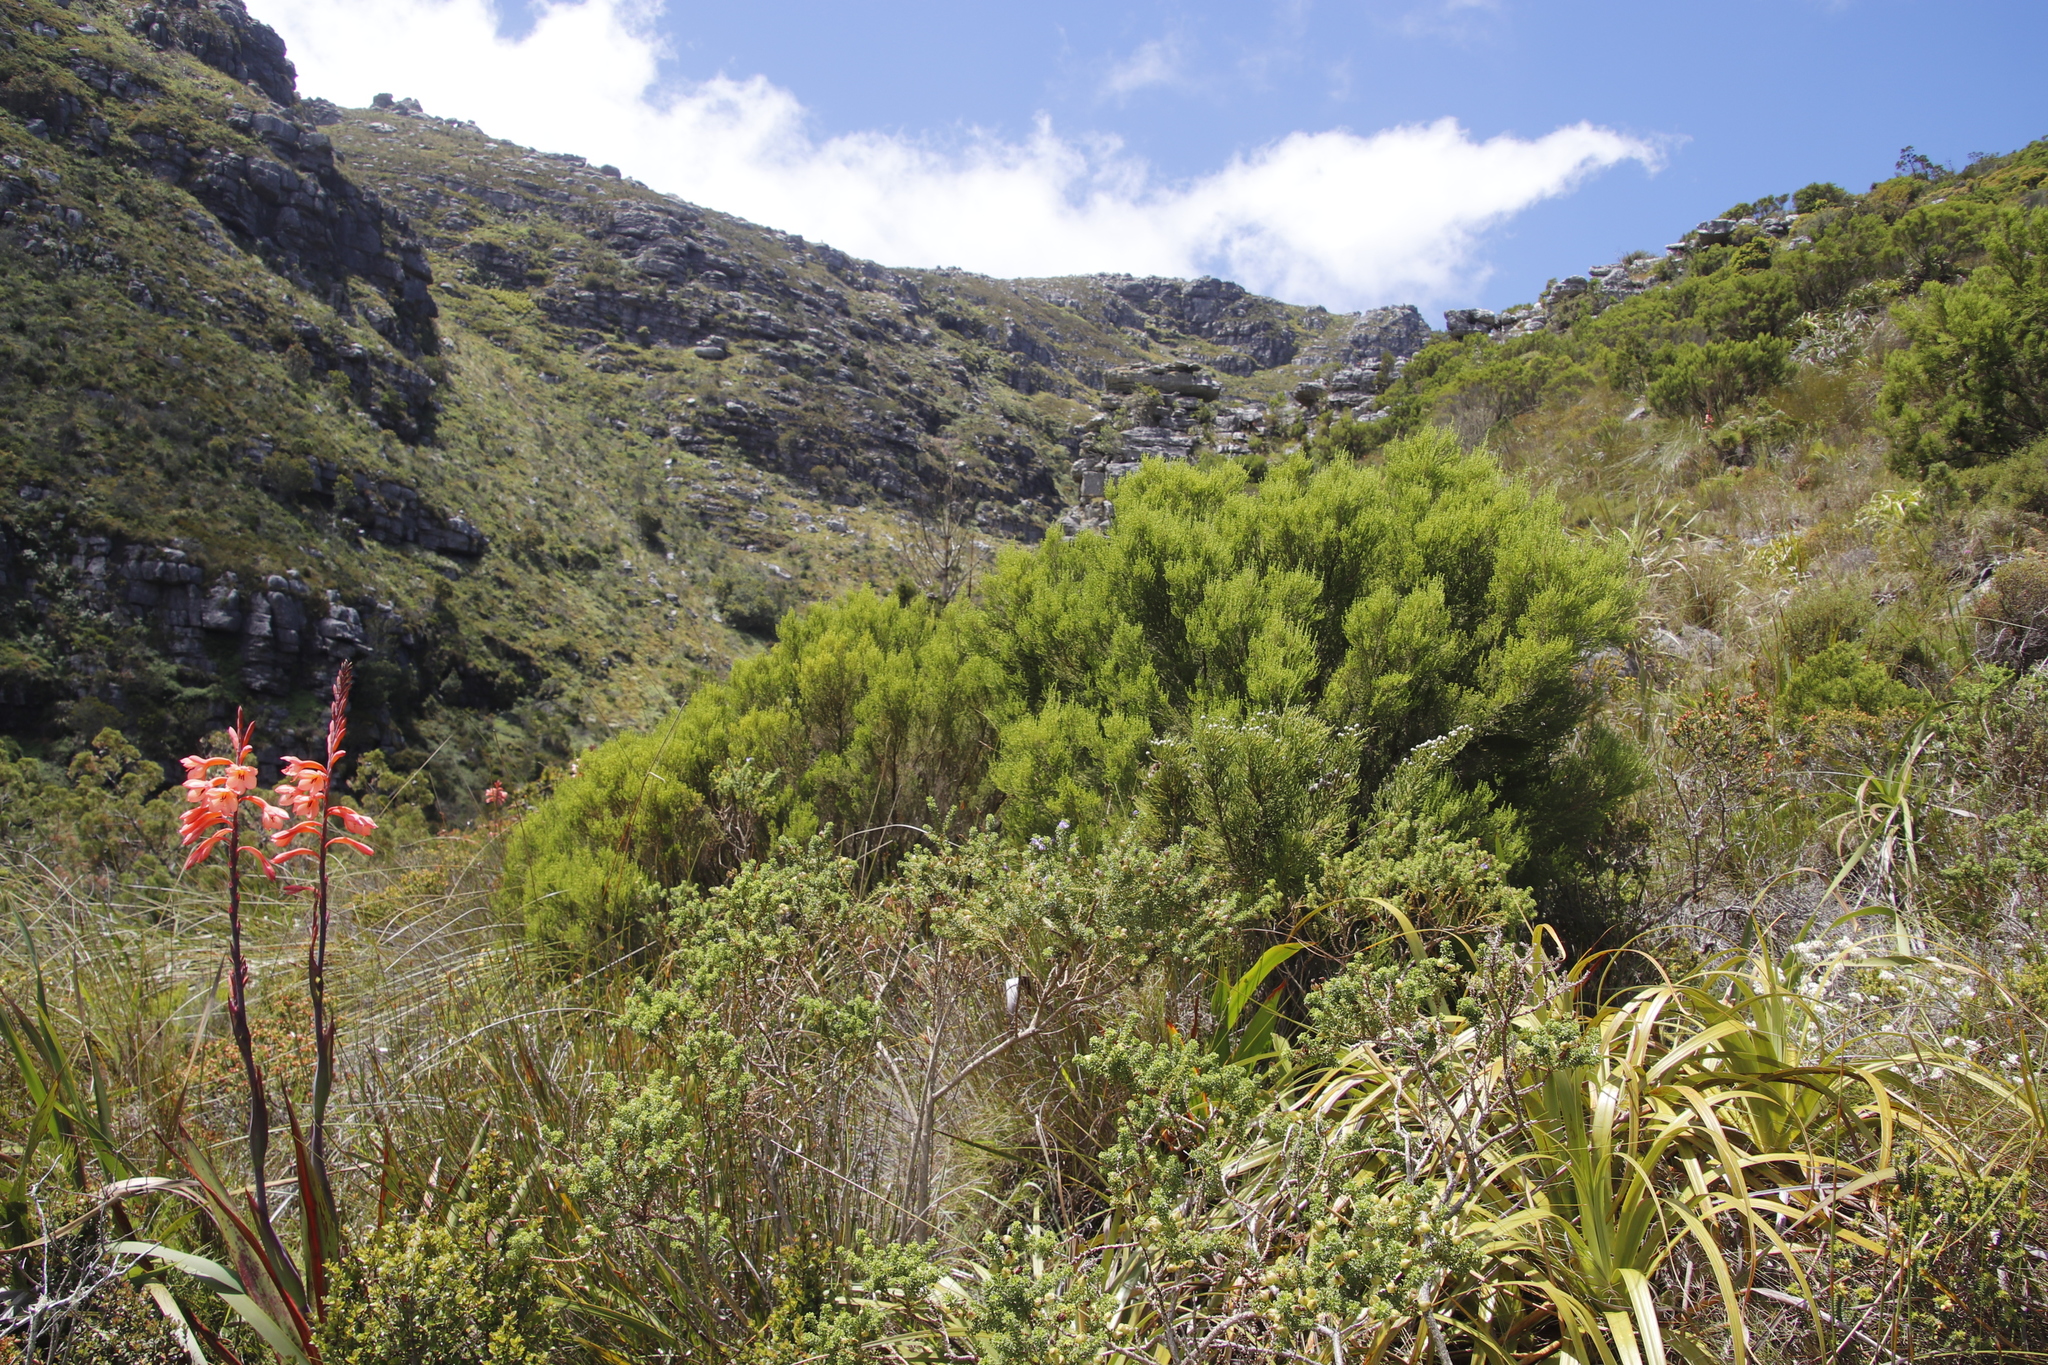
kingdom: Plantae
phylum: Tracheophyta
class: Magnoliopsida
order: Ericales
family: Ericaceae
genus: Erica
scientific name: Erica tristis
